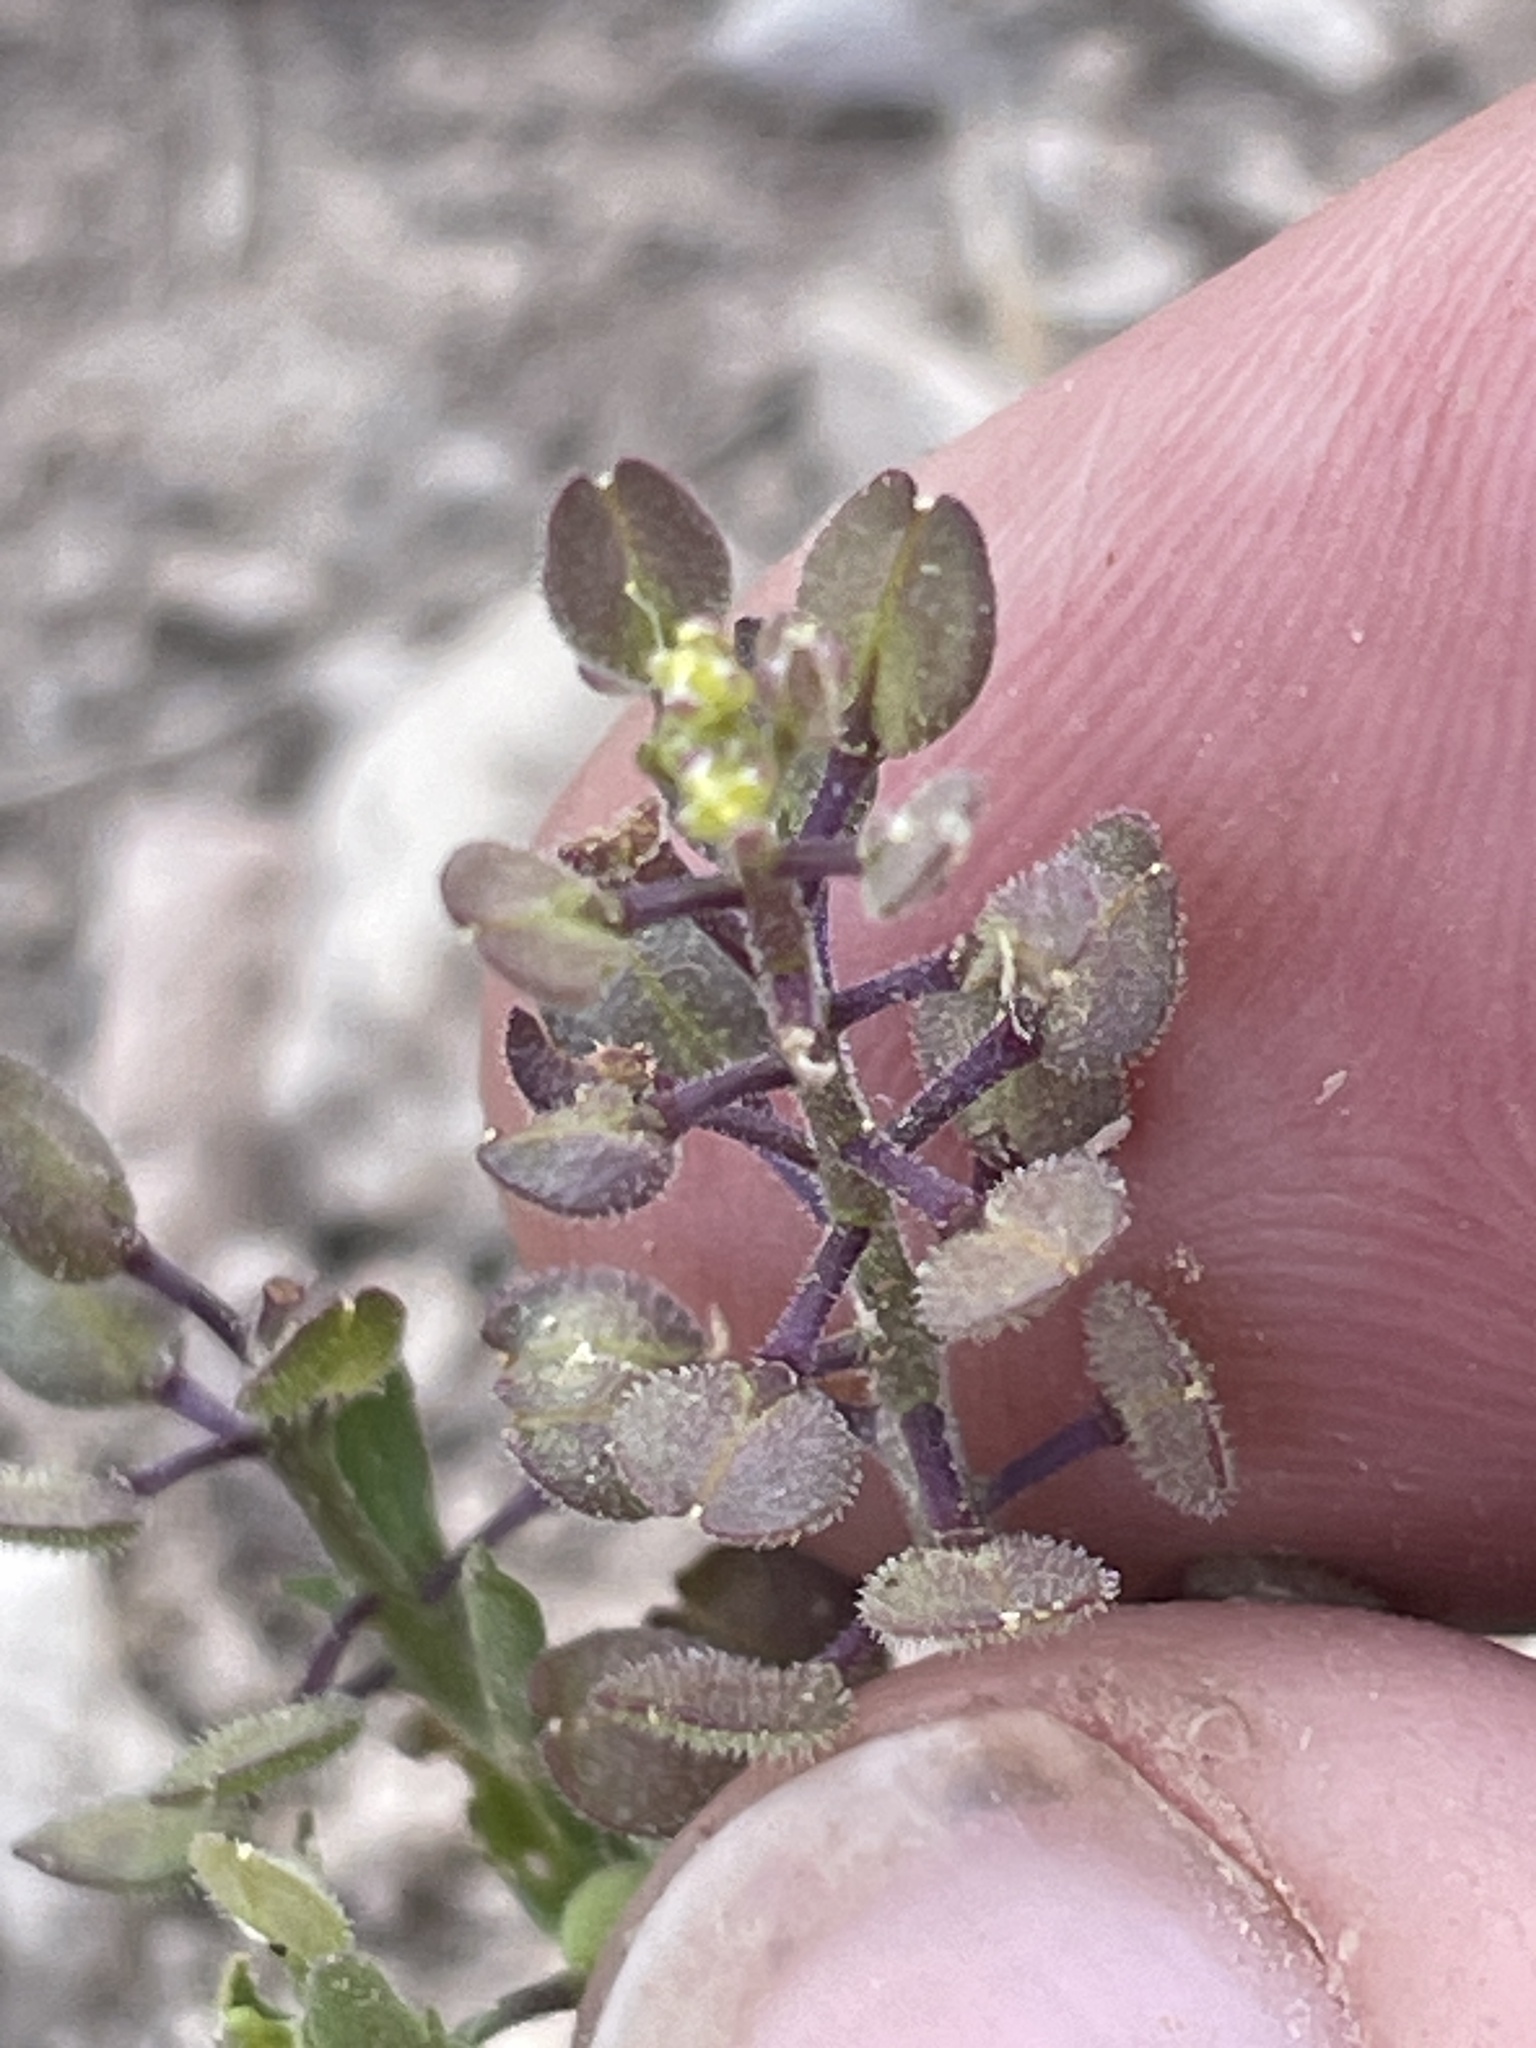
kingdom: Plantae
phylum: Tracheophyta
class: Magnoliopsida
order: Brassicales
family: Brassicaceae
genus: Lepidium
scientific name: Lepidium lasiocarpum
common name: Hairy-pod pepperwort
